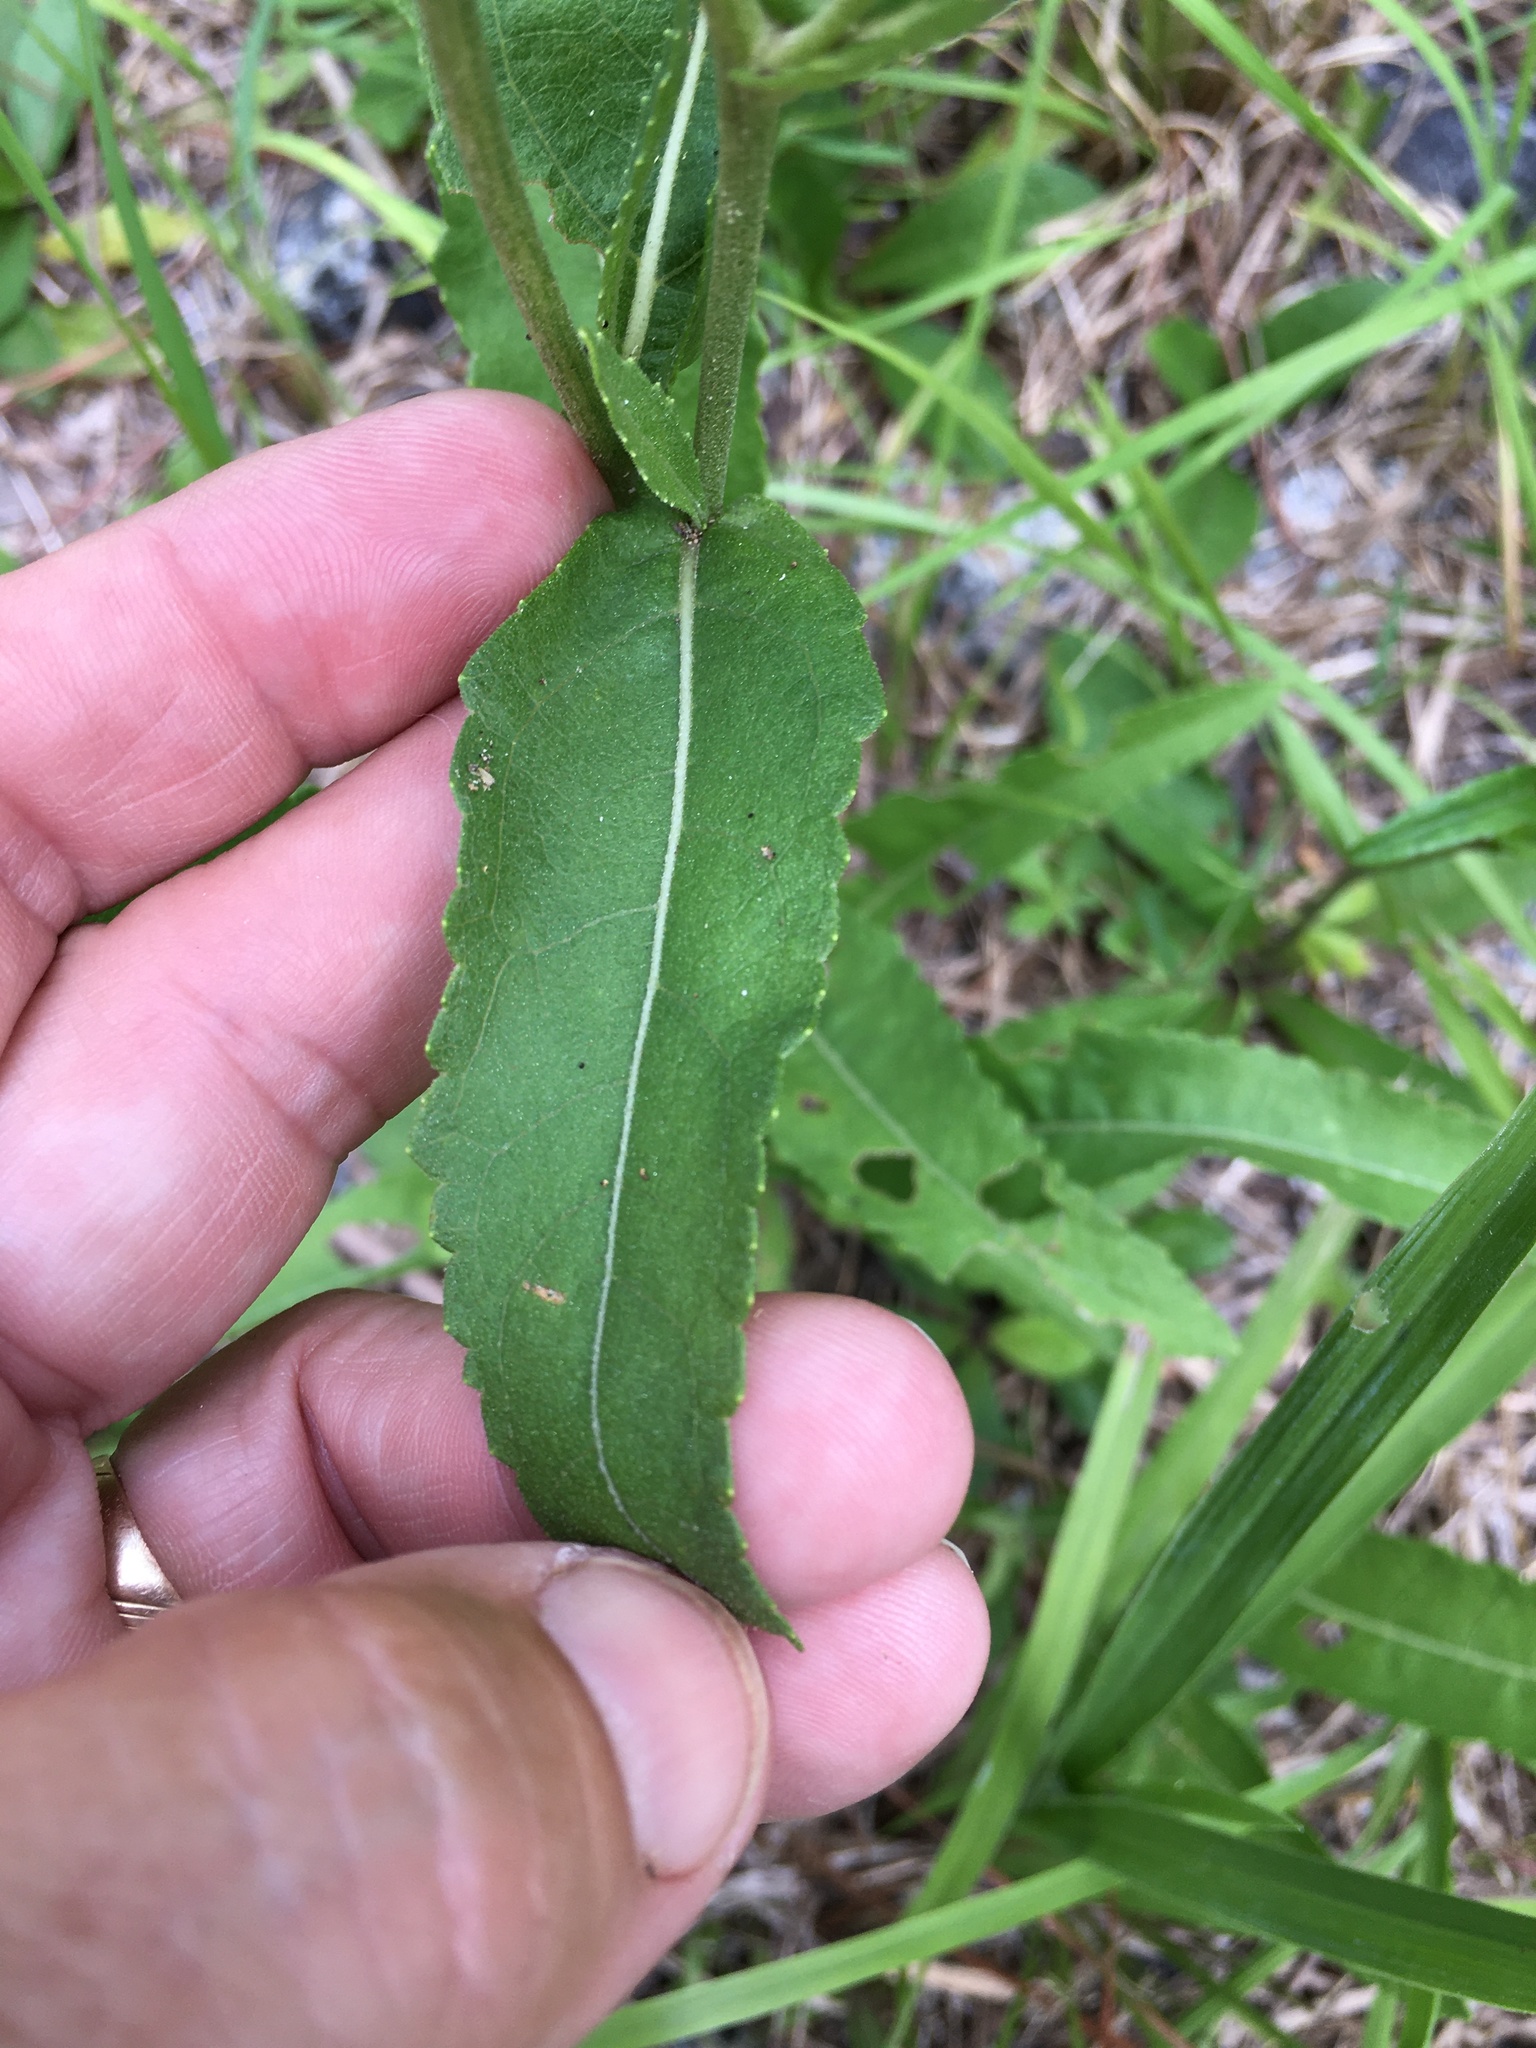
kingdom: Plantae
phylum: Tracheophyta
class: Magnoliopsida
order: Asterales
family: Asteraceae
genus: Parthenium
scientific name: Parthenium integrifolium
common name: American feverfew
